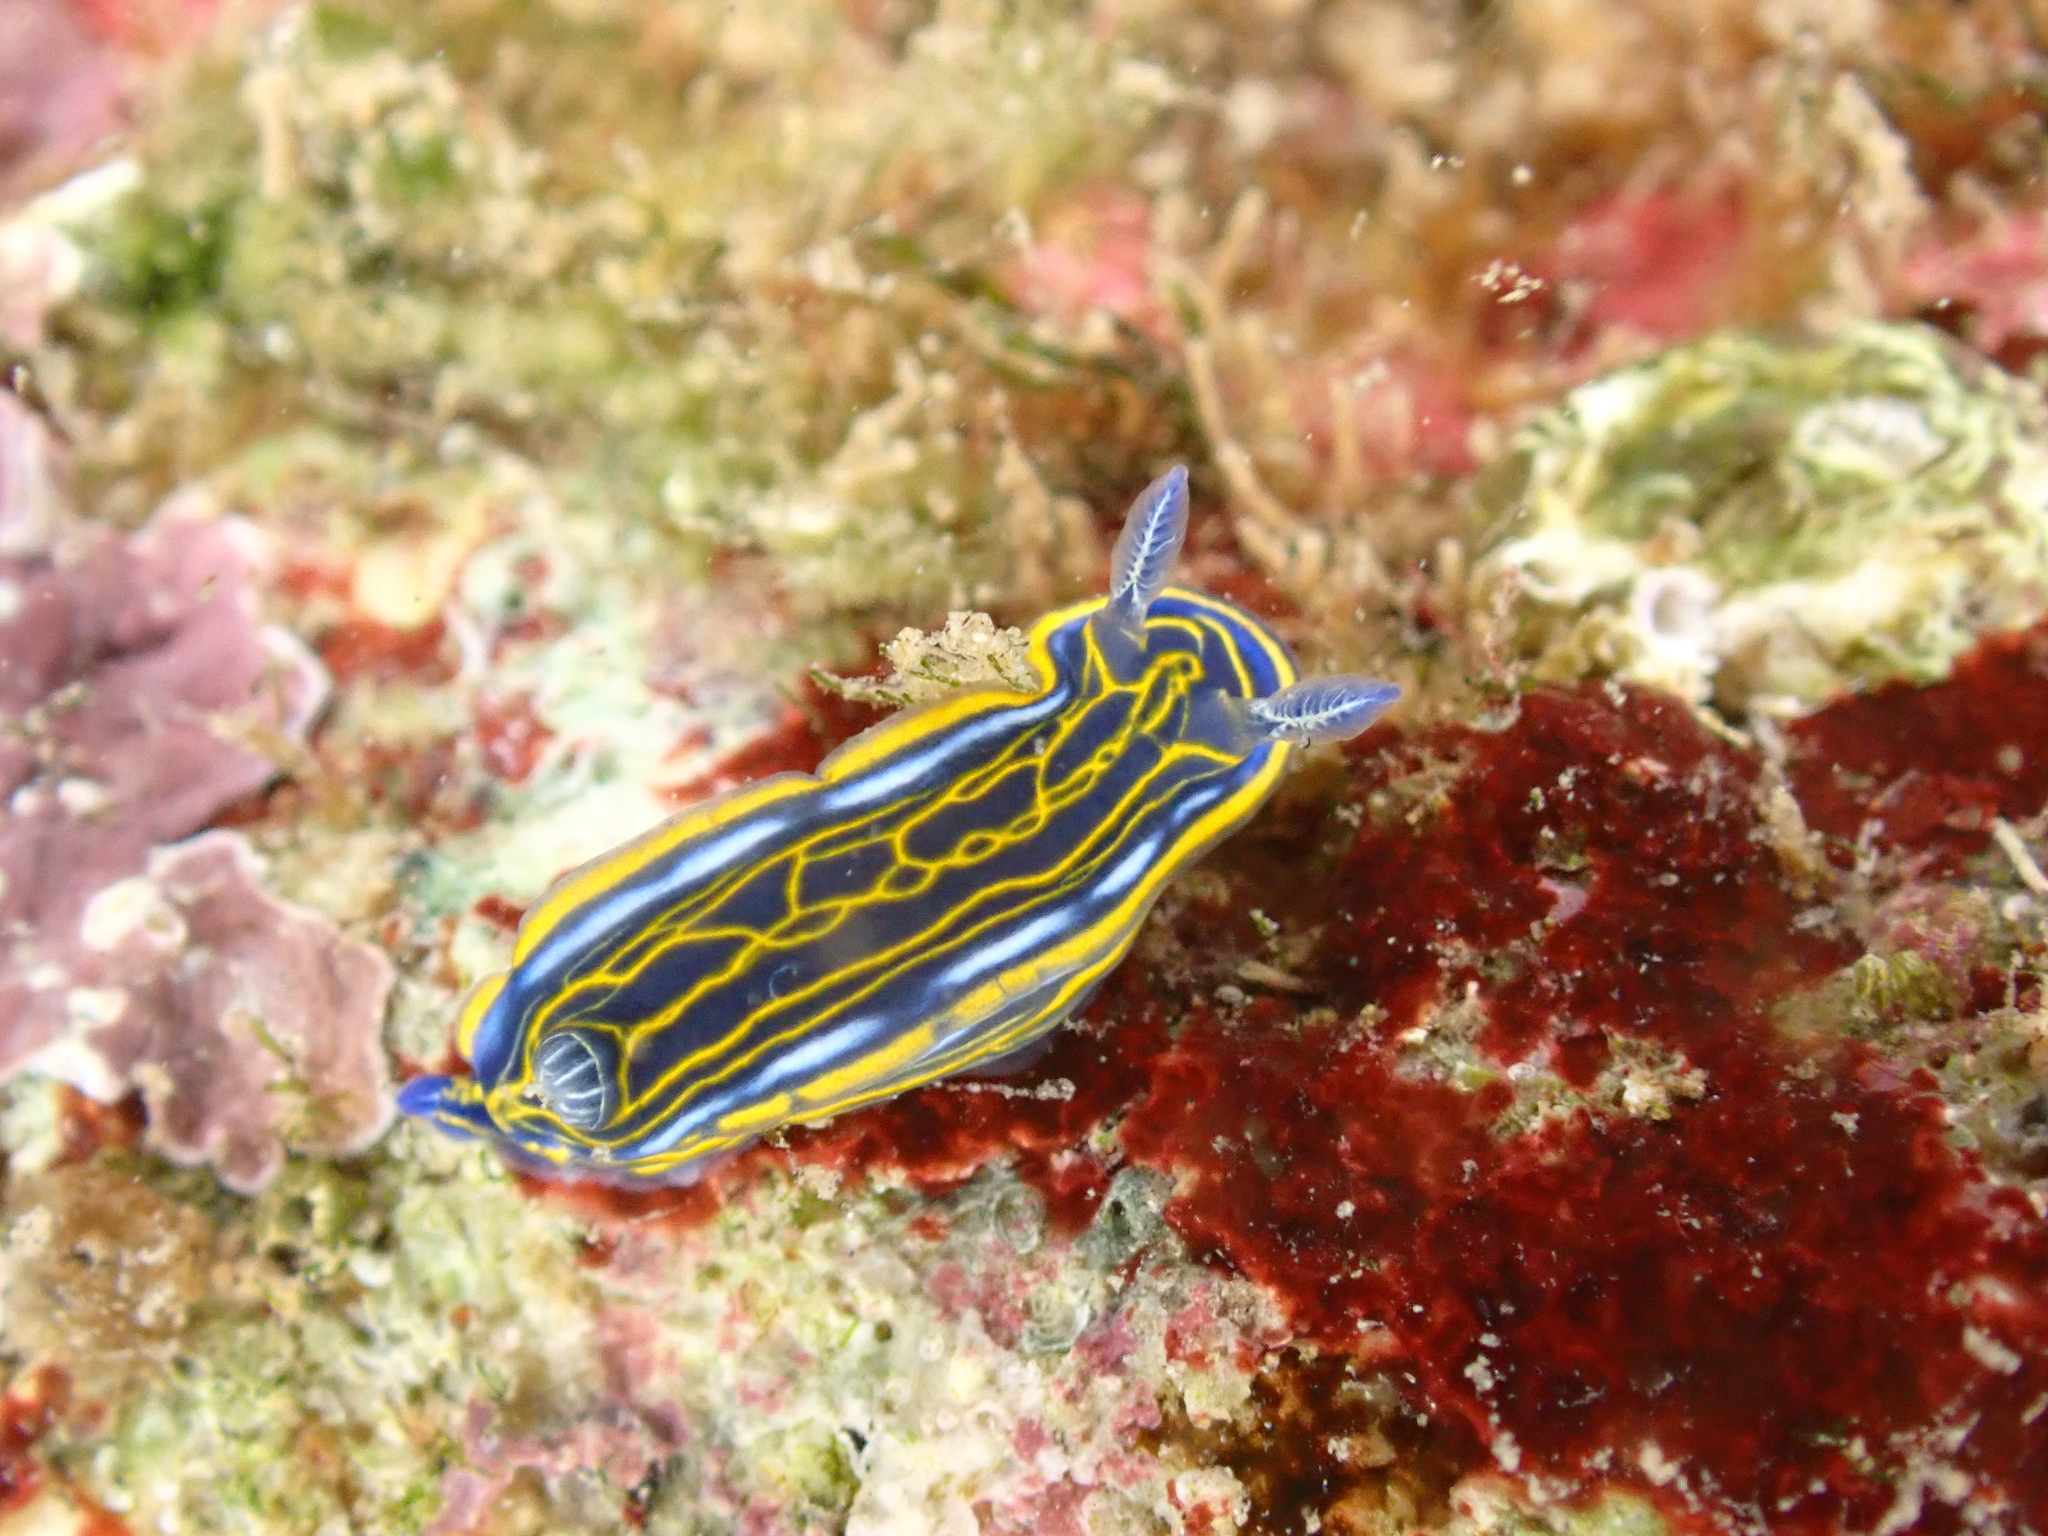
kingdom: Animalia
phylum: Mollusca
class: Gastropoda
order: Nudibranchia
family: Chromodorididae
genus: Felimare
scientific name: Felimare villafranca
